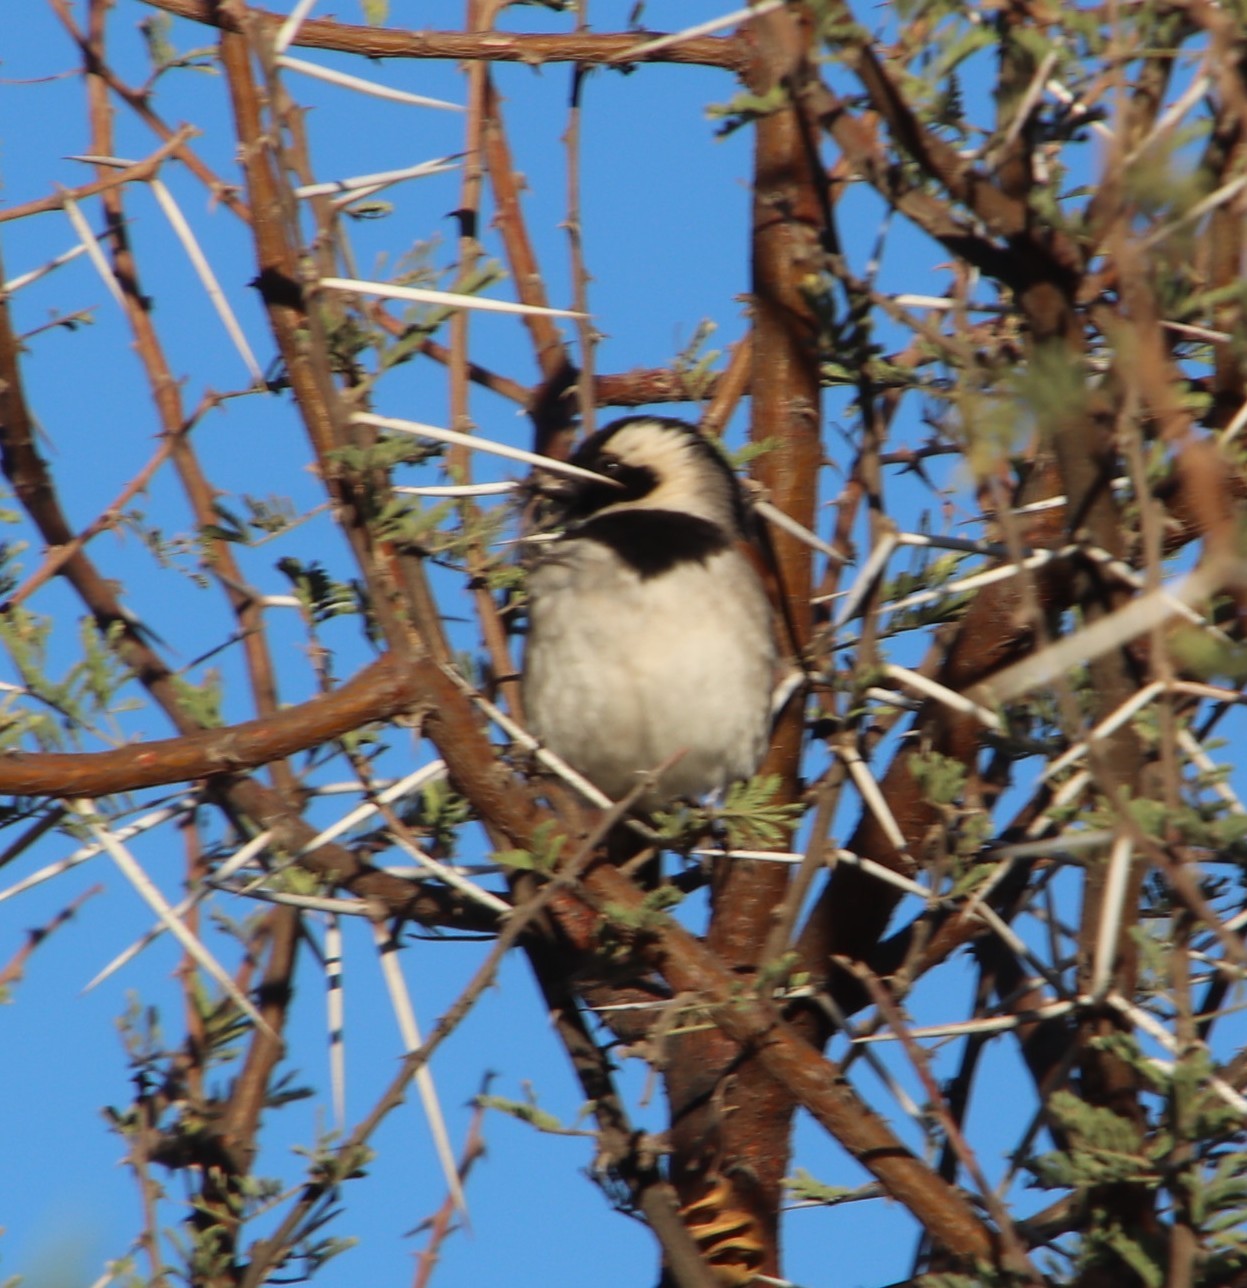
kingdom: Animalia
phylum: Chordata
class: Aves
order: Passeriformes
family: Passeridae
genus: Passer
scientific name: Passer melanurus
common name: Cape sparrow
